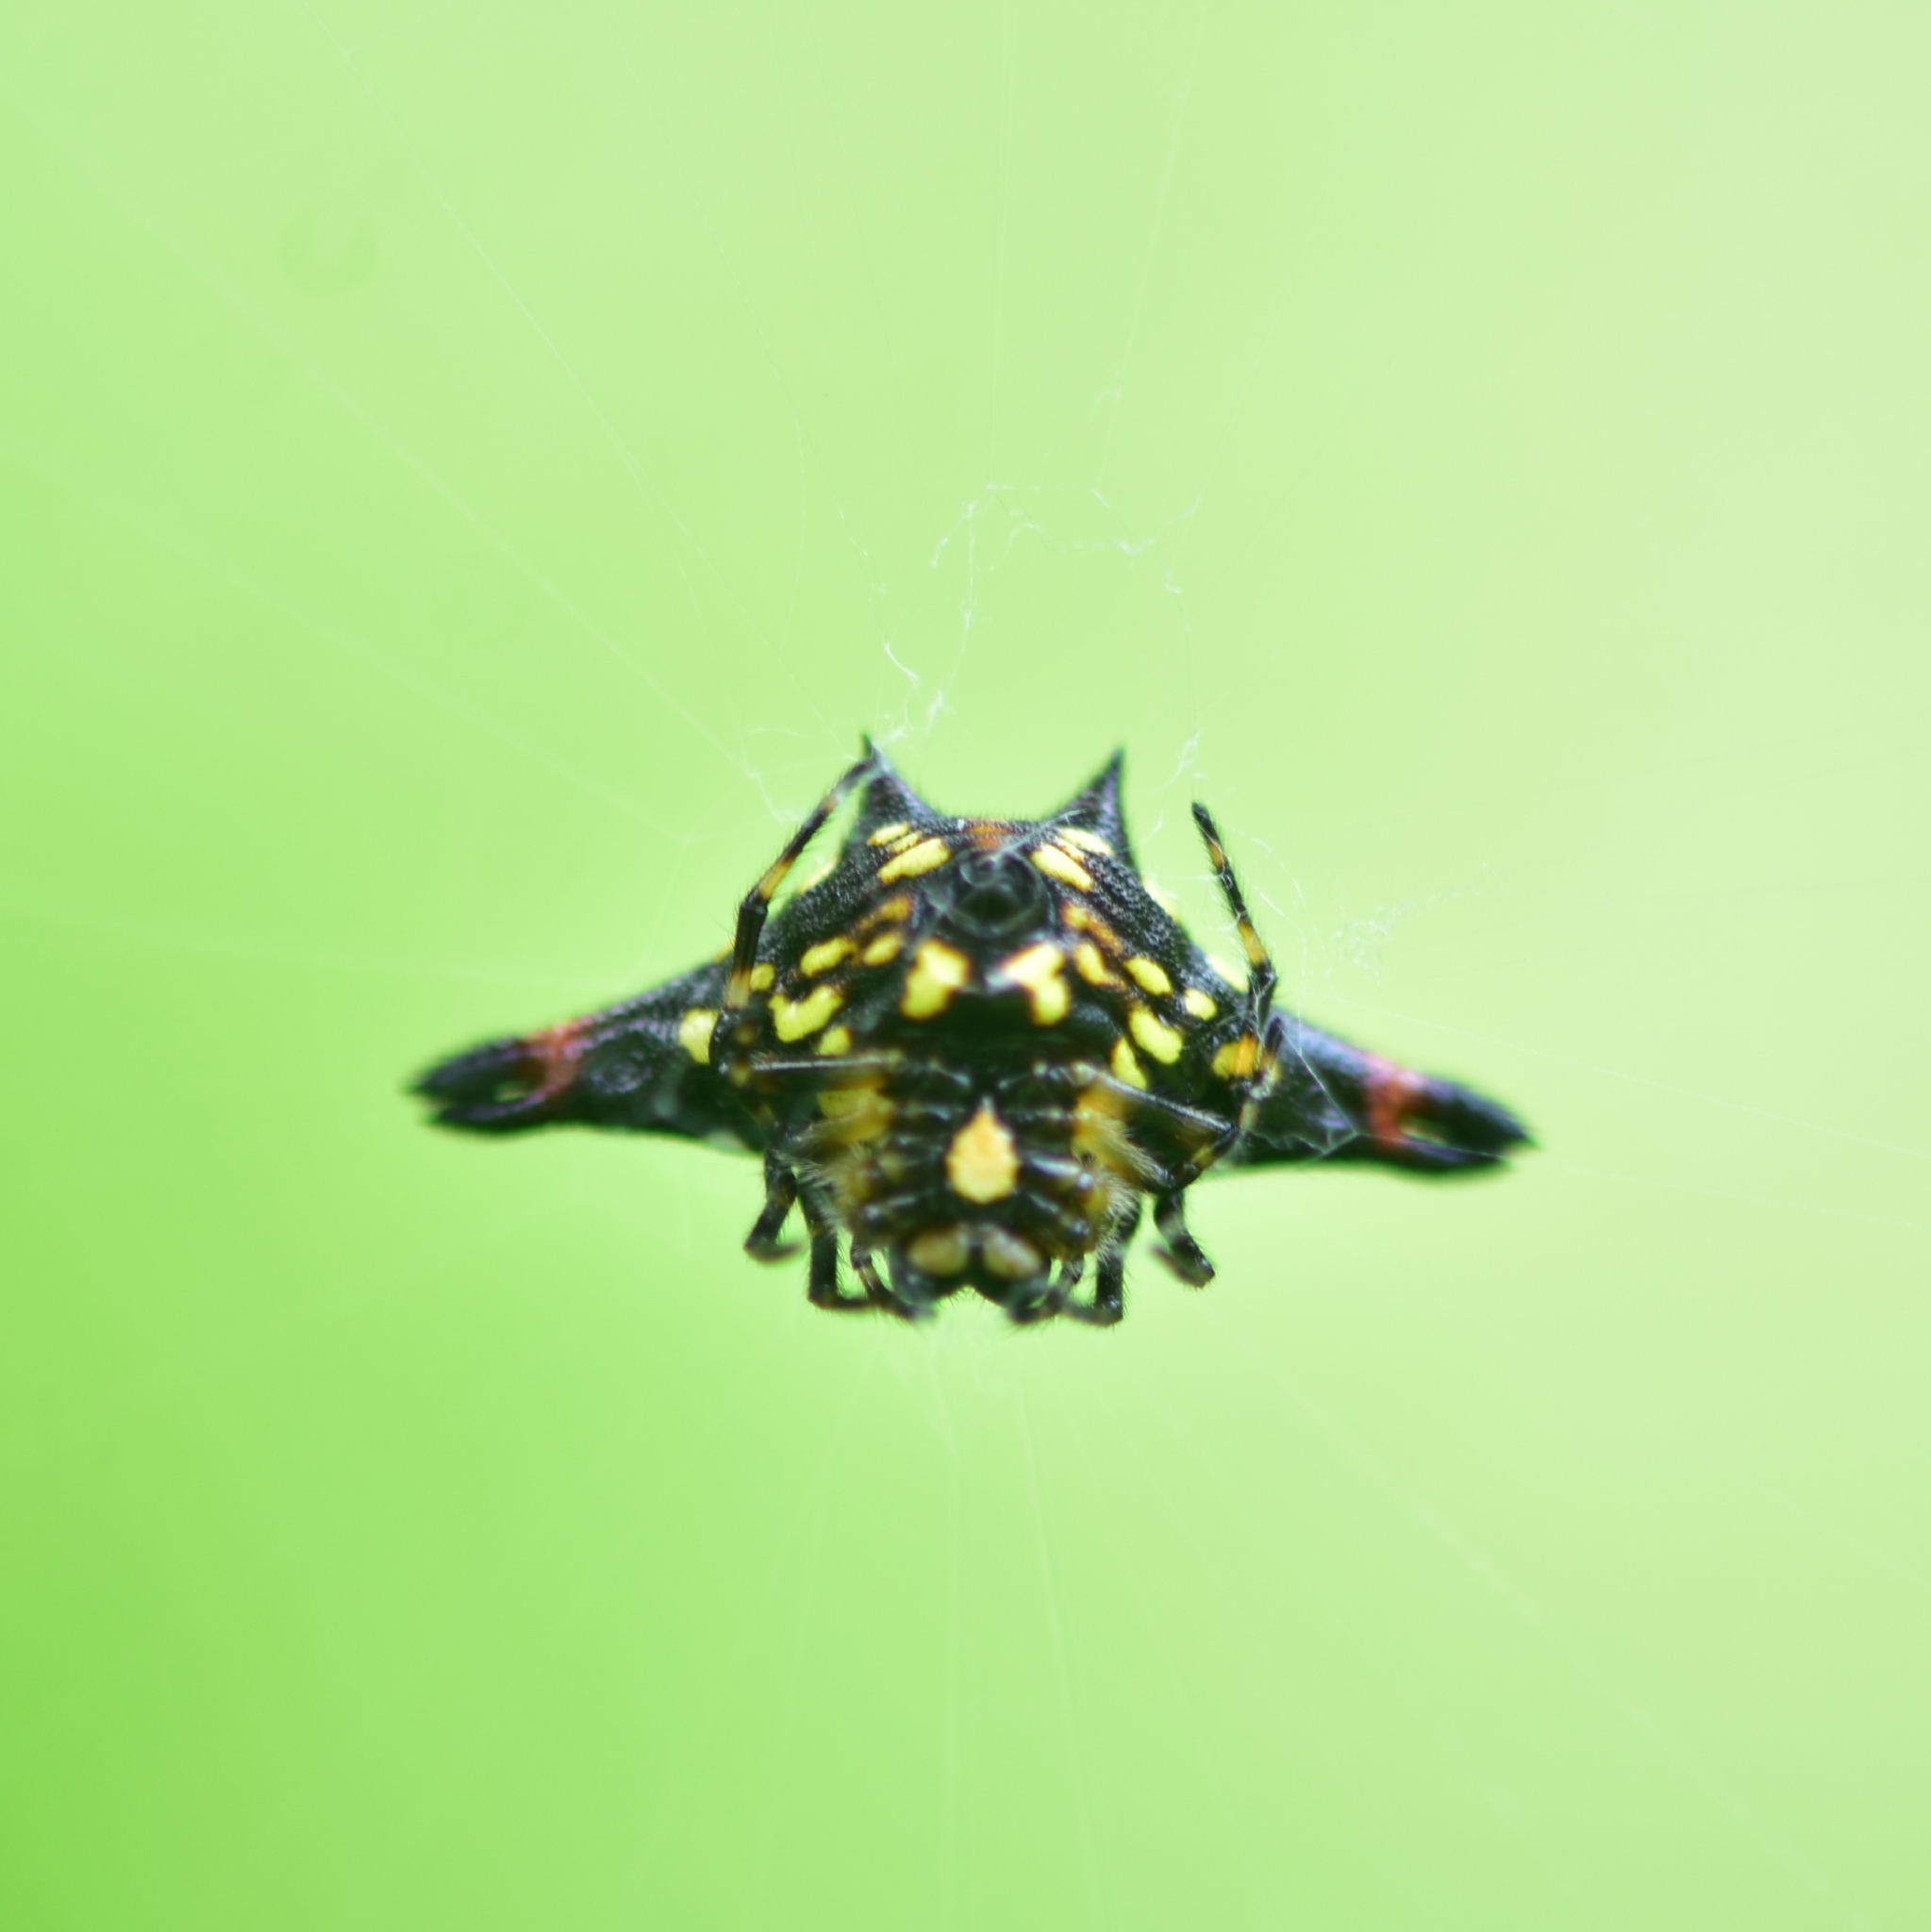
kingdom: Animalia
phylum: Arthropoda
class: Arachnida
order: Araneae
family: Araneidae
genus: Gasteracantha
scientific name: Gasteracantha geminata
